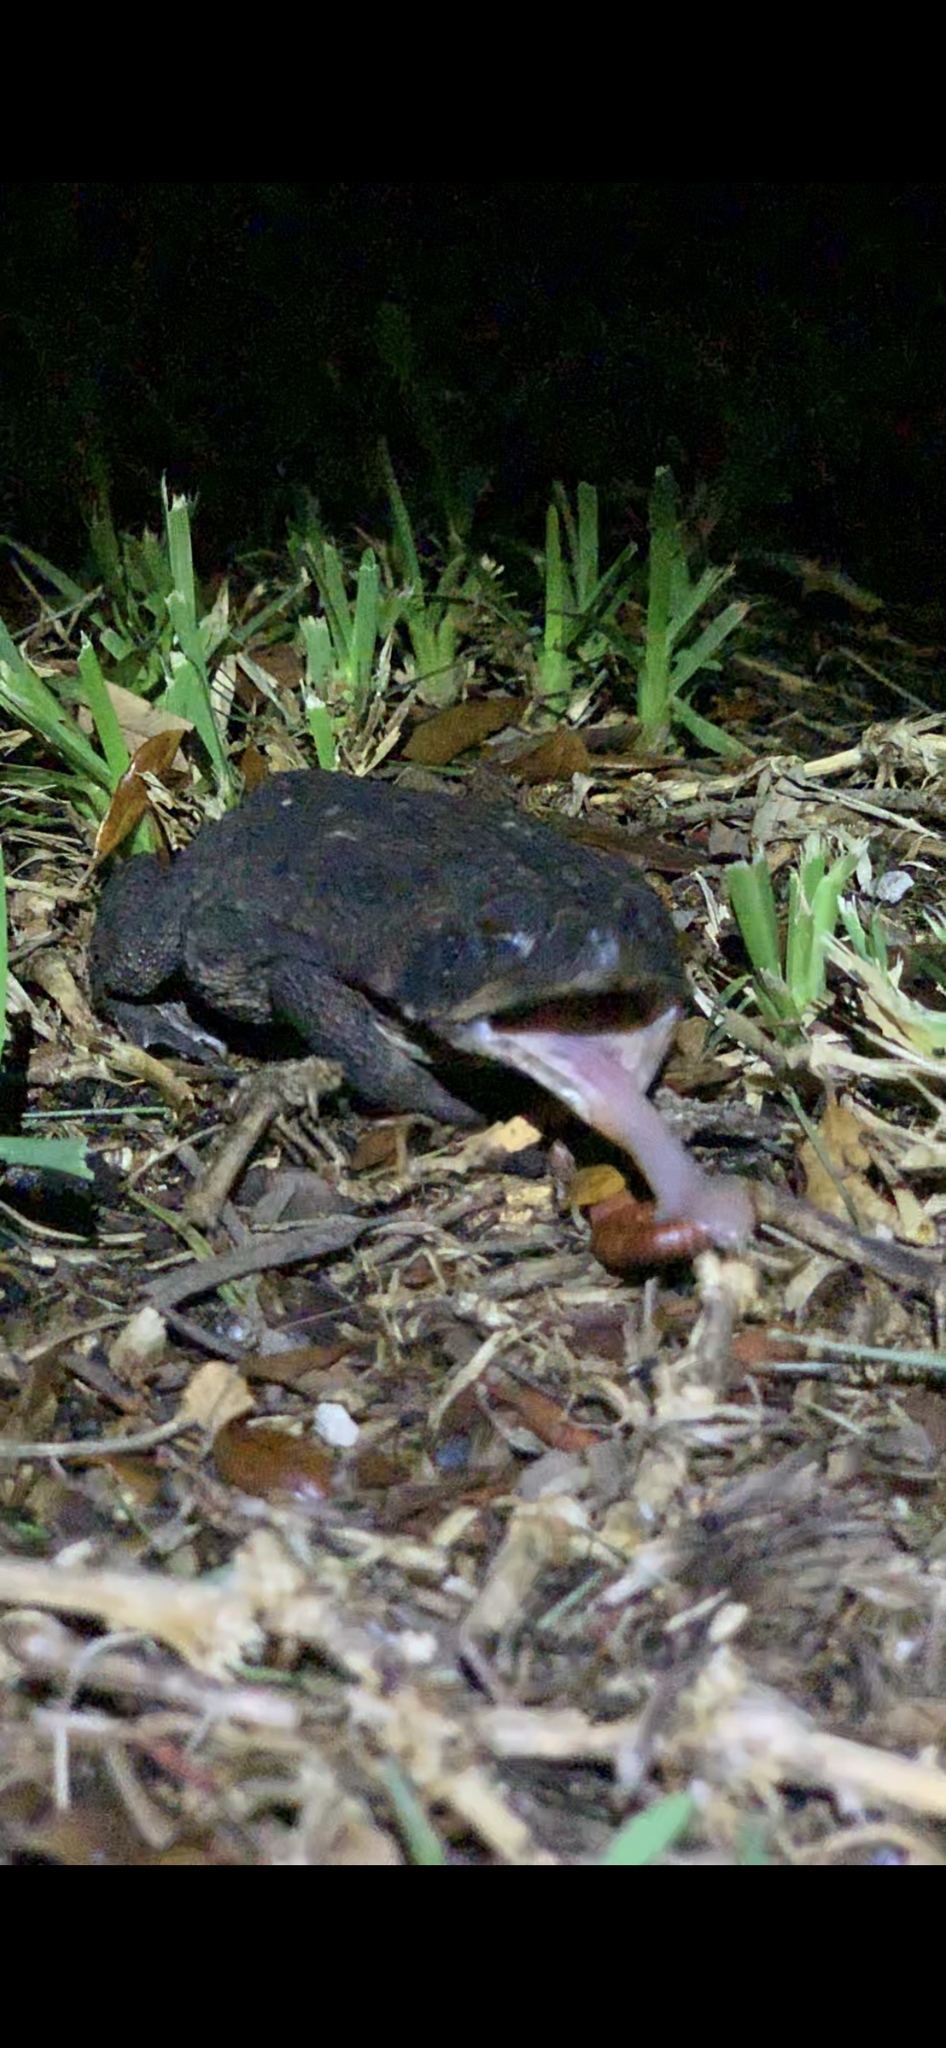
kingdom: Animalia
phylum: Chordata
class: Amphibia
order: Anura
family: Bufonidae
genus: Rhinella
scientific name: Rhinella marina
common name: Cane toad
